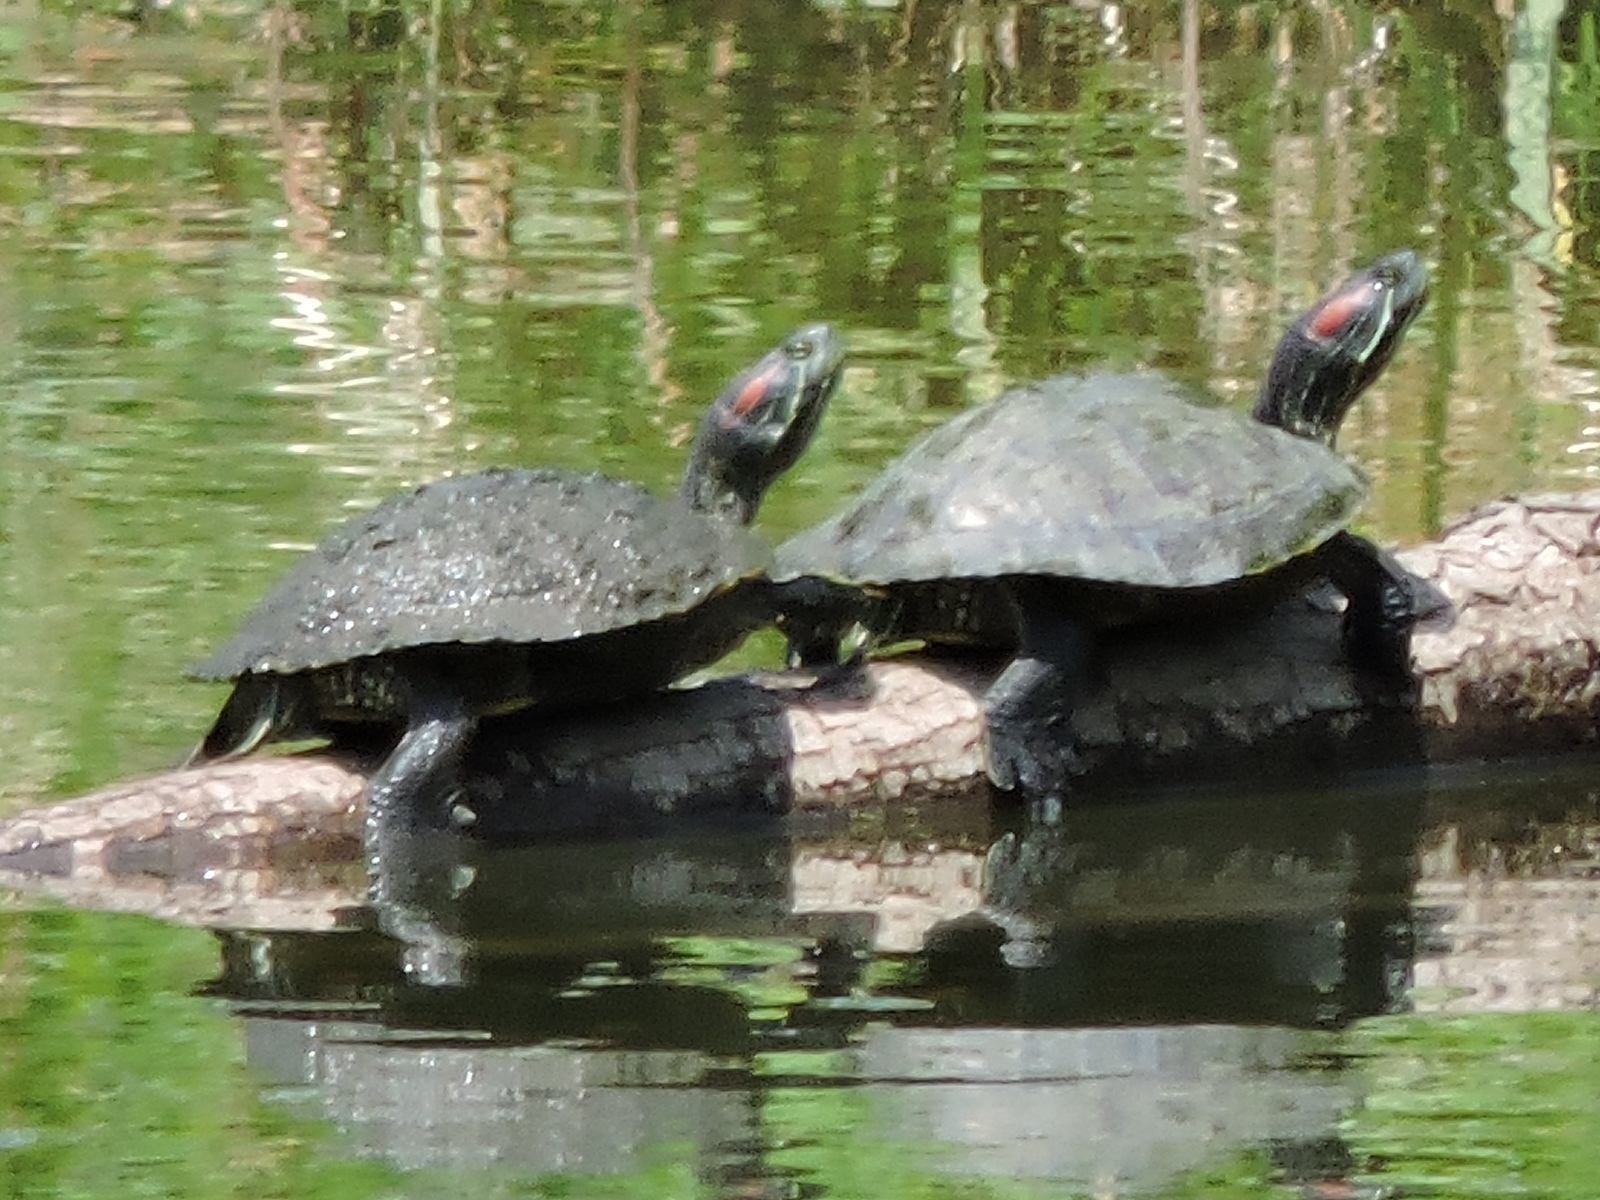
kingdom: Animalia
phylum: Chordata
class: Testudines
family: Emydidae
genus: Trachemys
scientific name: Trachemys scripta
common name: Slider
